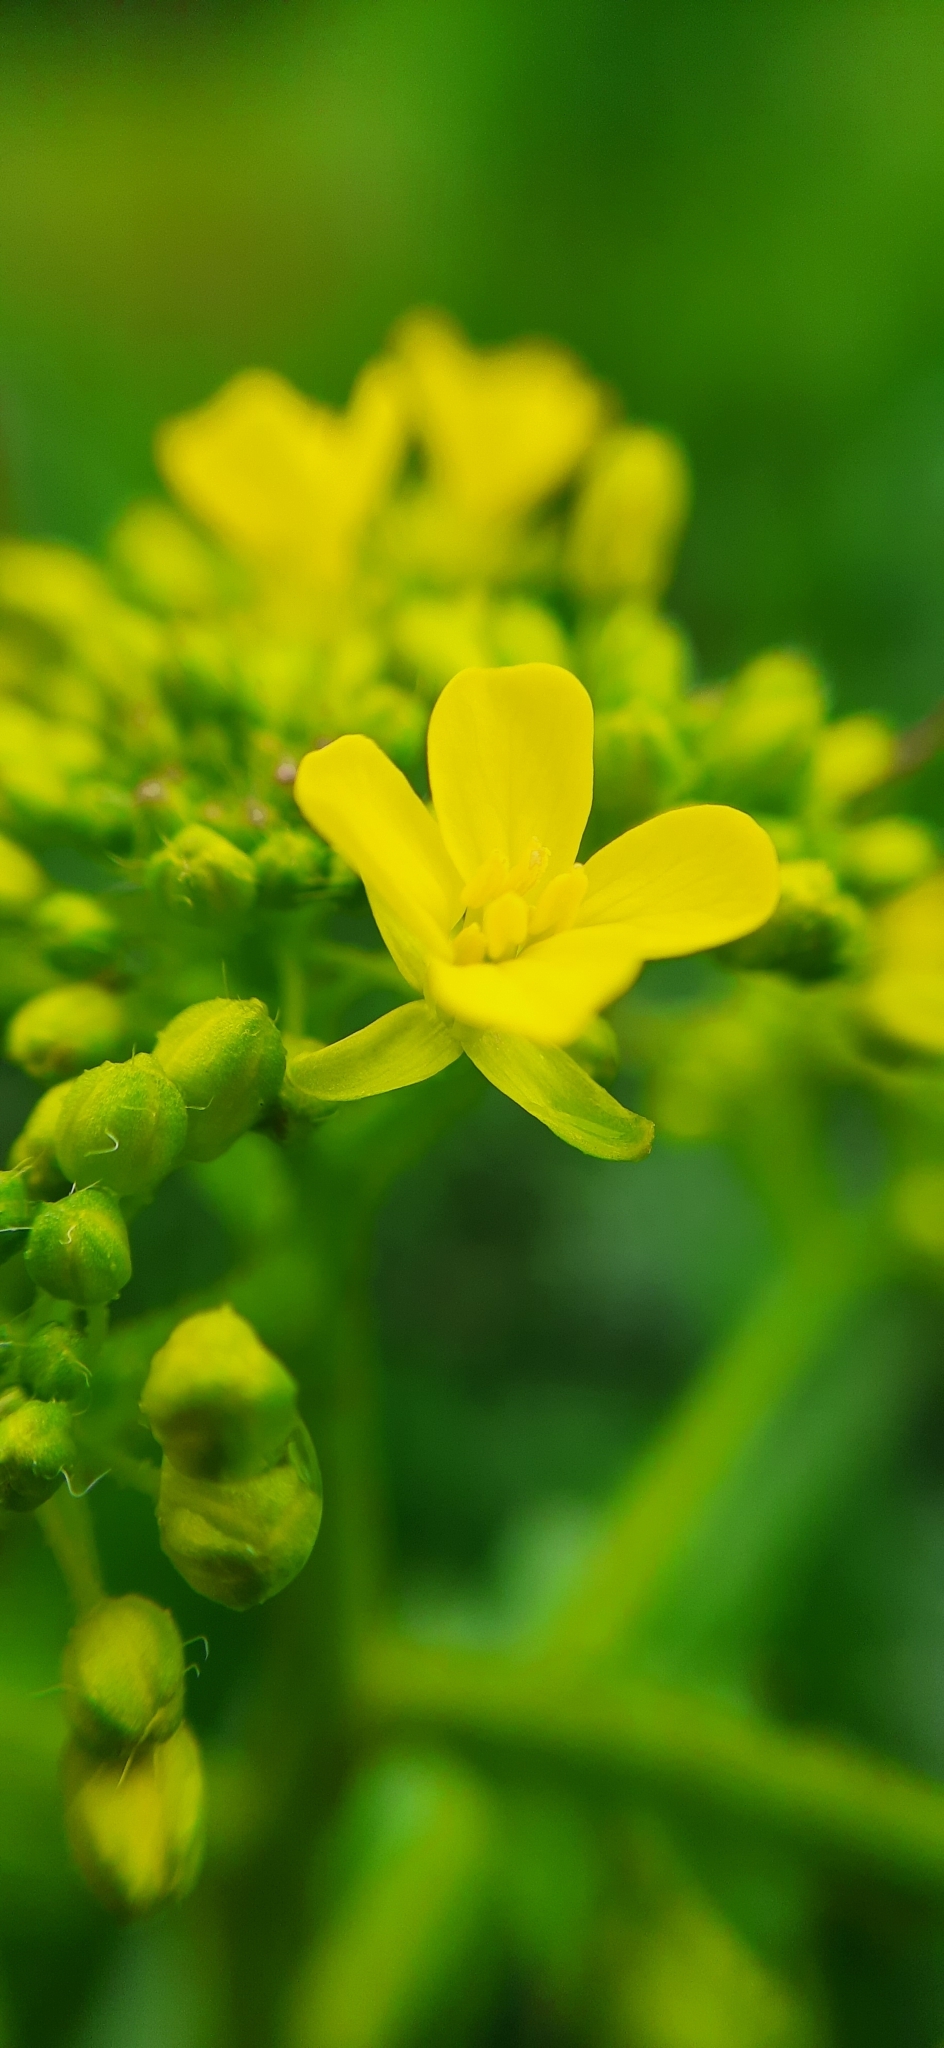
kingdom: Plantae
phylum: Tracheophyta
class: Magnoliopsida
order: Brassicales
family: Brassicaceae
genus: Bunias
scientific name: Bunias orientalis
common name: Warty-cabbage
